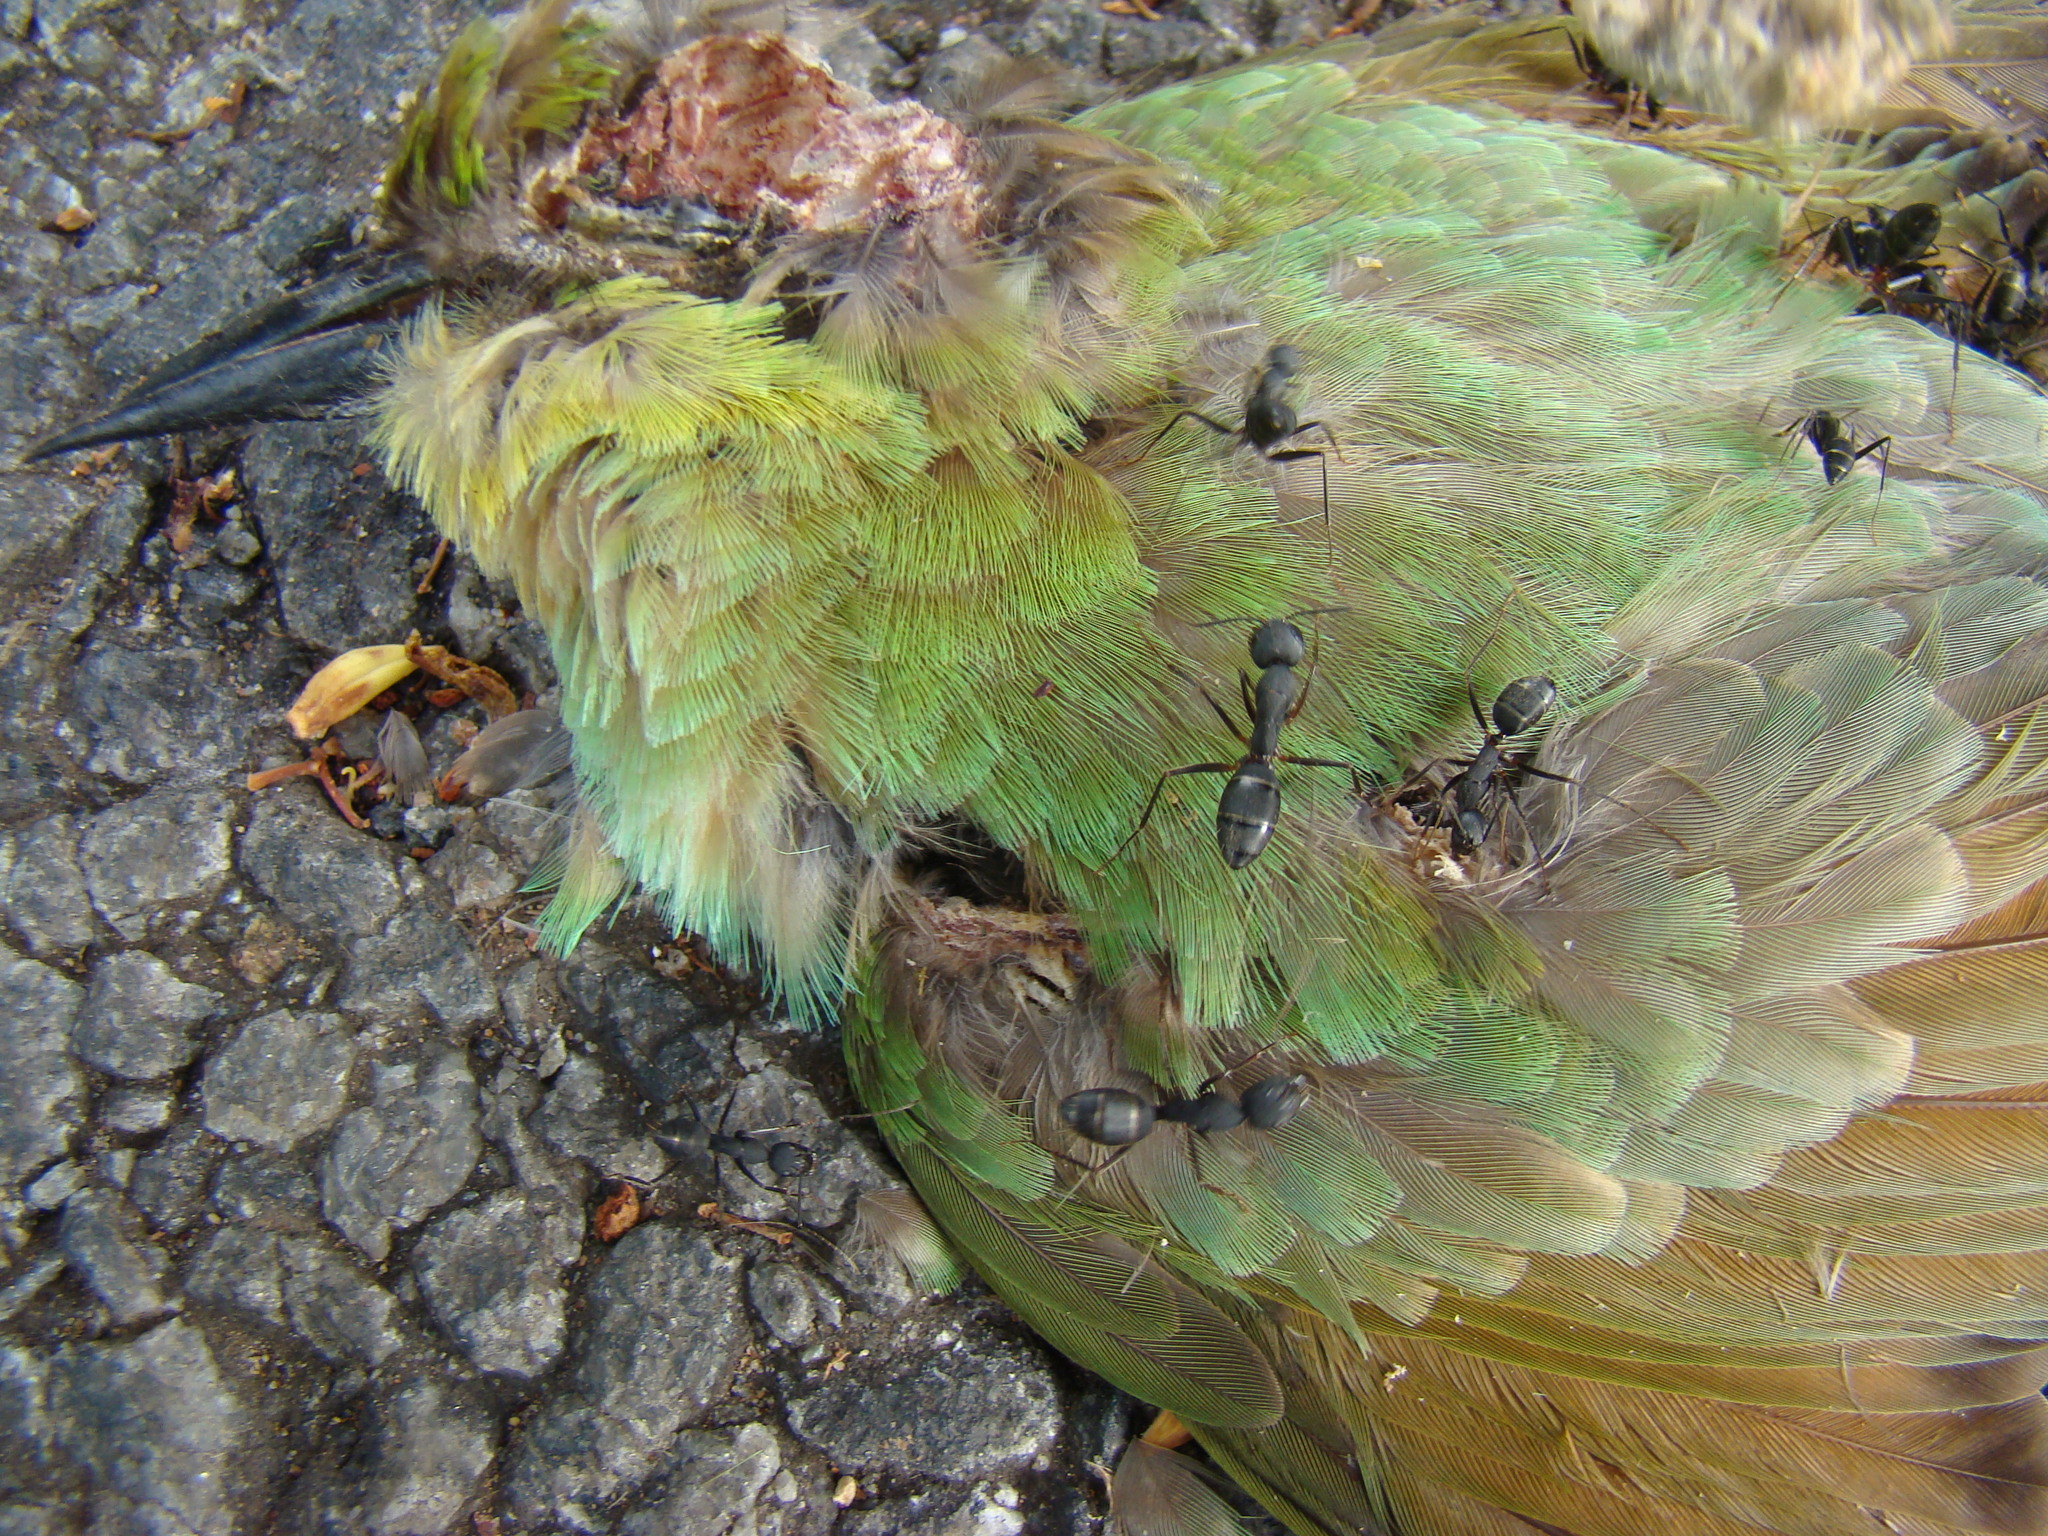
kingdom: Animalia
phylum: Arthropoda
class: Insecta
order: Hymenoptera
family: Formicidae
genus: Camponotus
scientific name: Camponotus compressus
